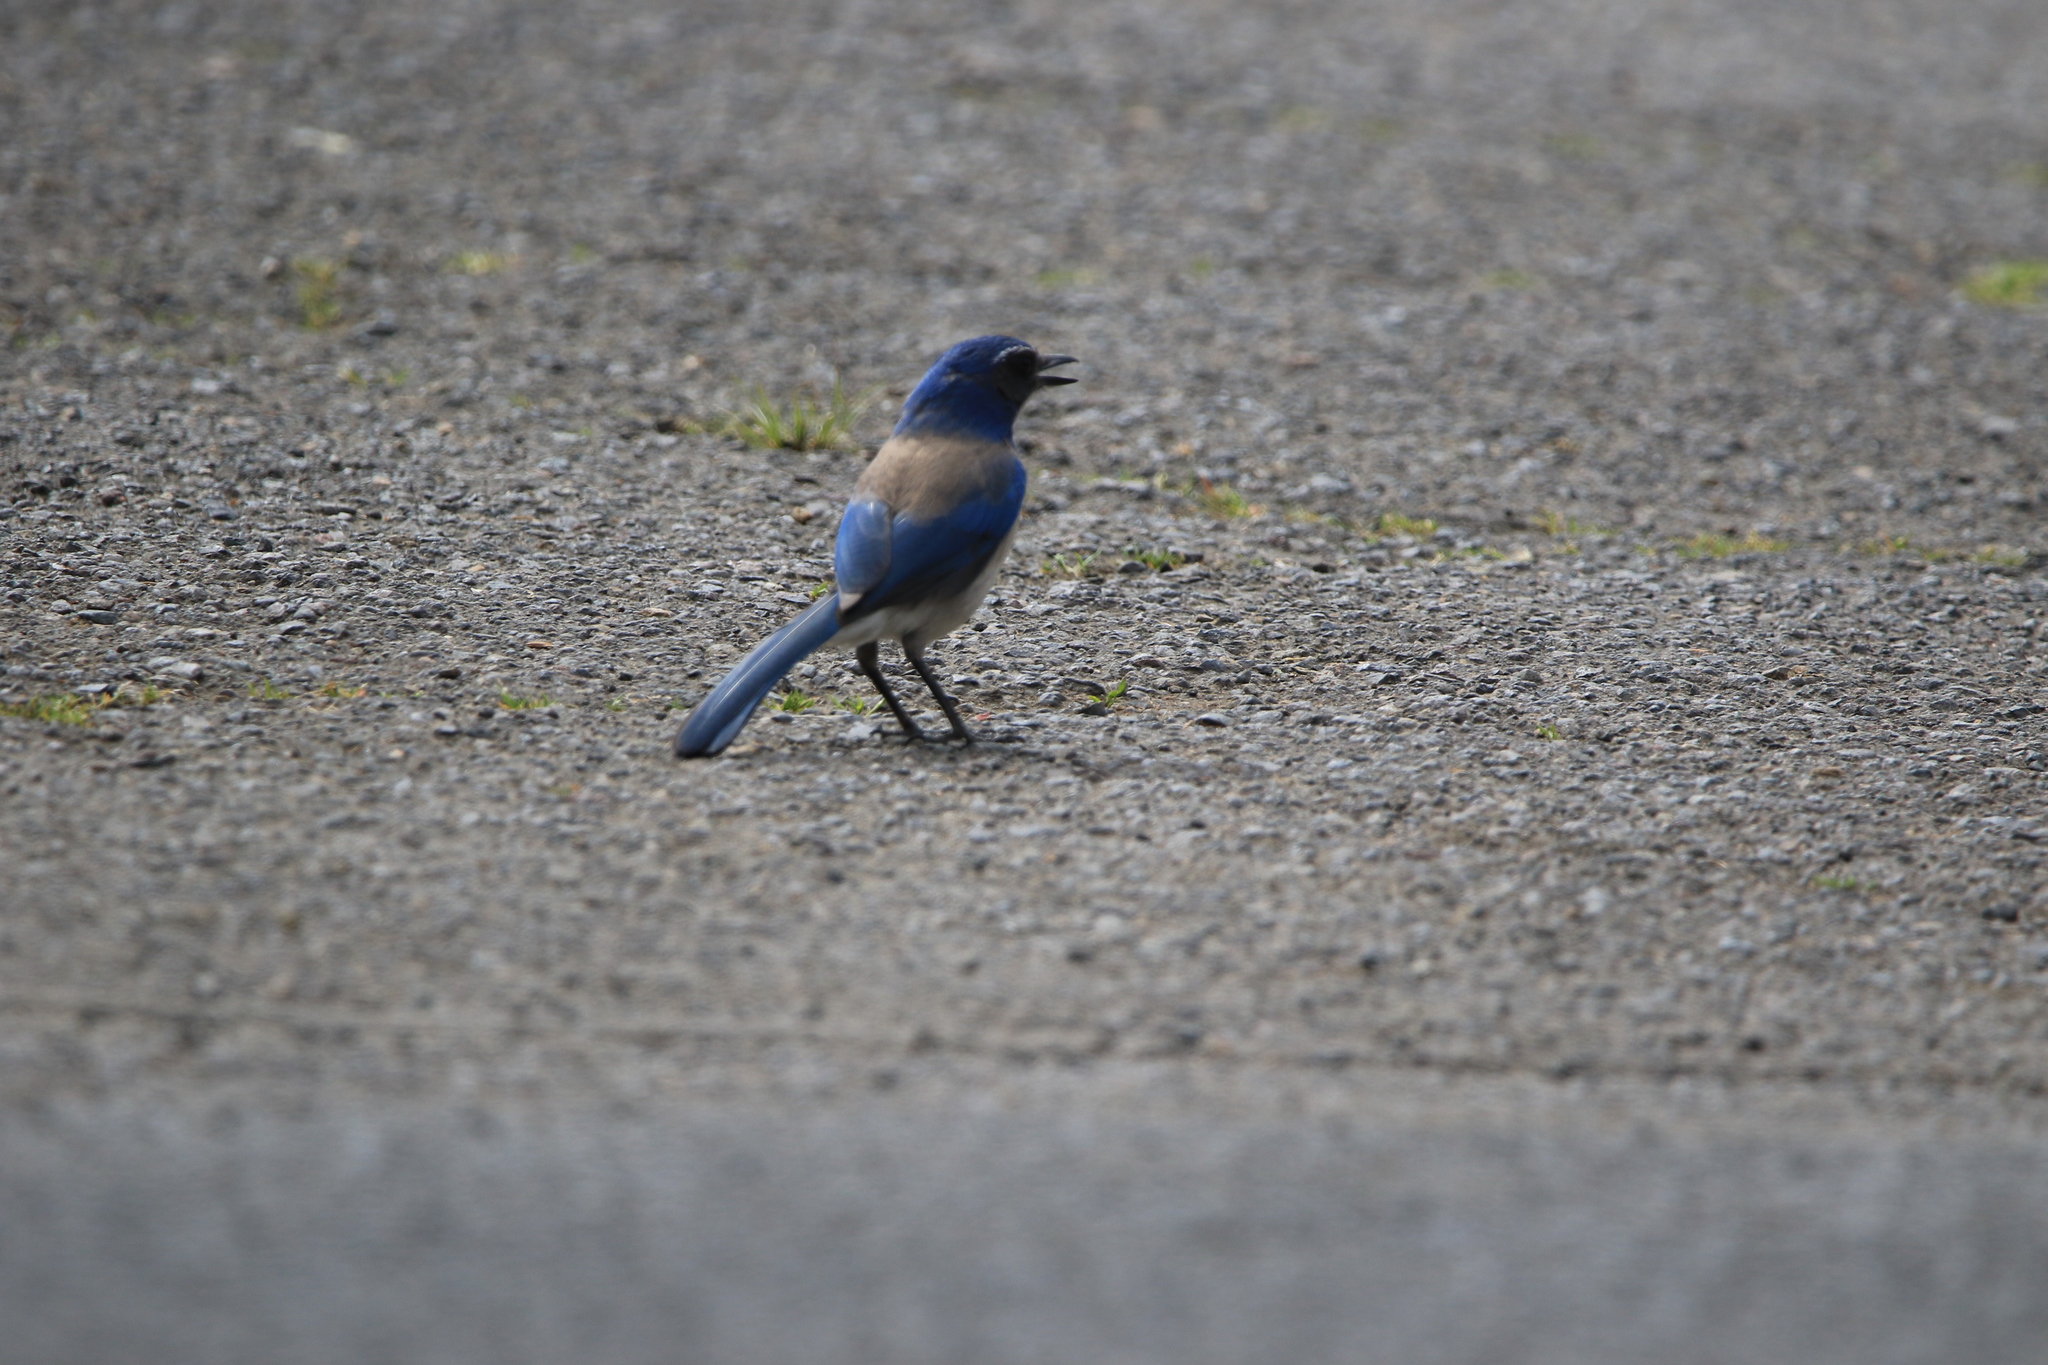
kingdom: Animalia
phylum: Chordata
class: Aves
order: Passeriformes
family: Corvidae
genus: Aphelocoma
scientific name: Aphelocoma californica
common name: California scrub-jay
